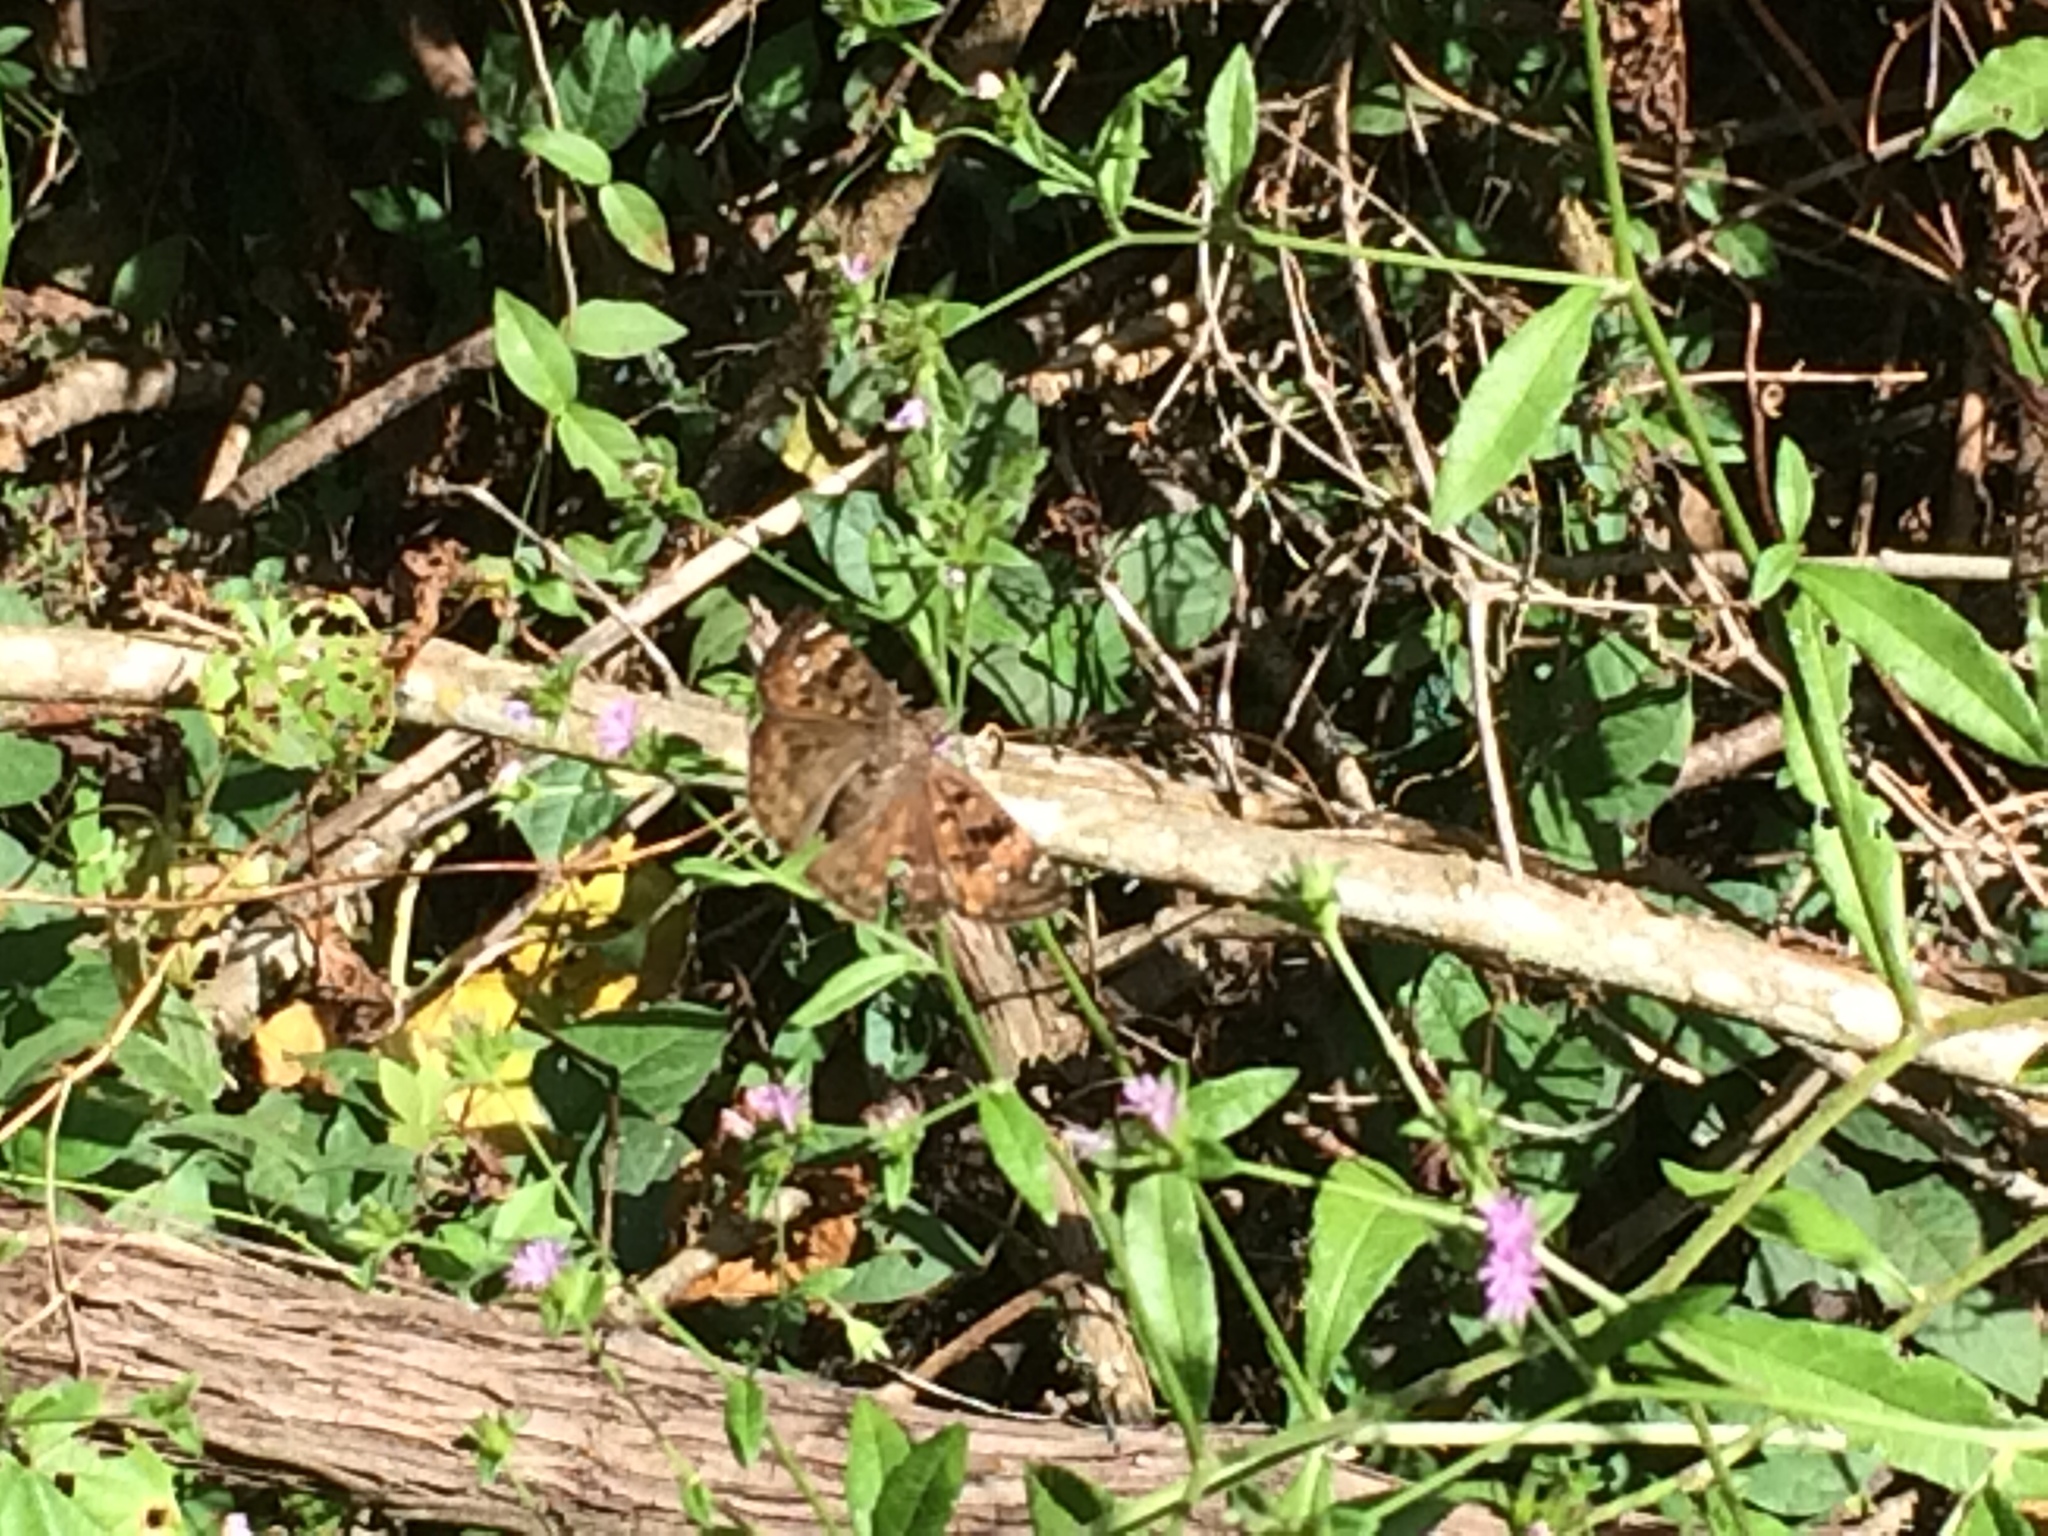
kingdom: Animalia
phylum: Arthropoda
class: Insecta
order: Lepidoptera
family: Hesperiidae
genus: Erynnis
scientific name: Erynnis horatius
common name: Horace's duskywing
